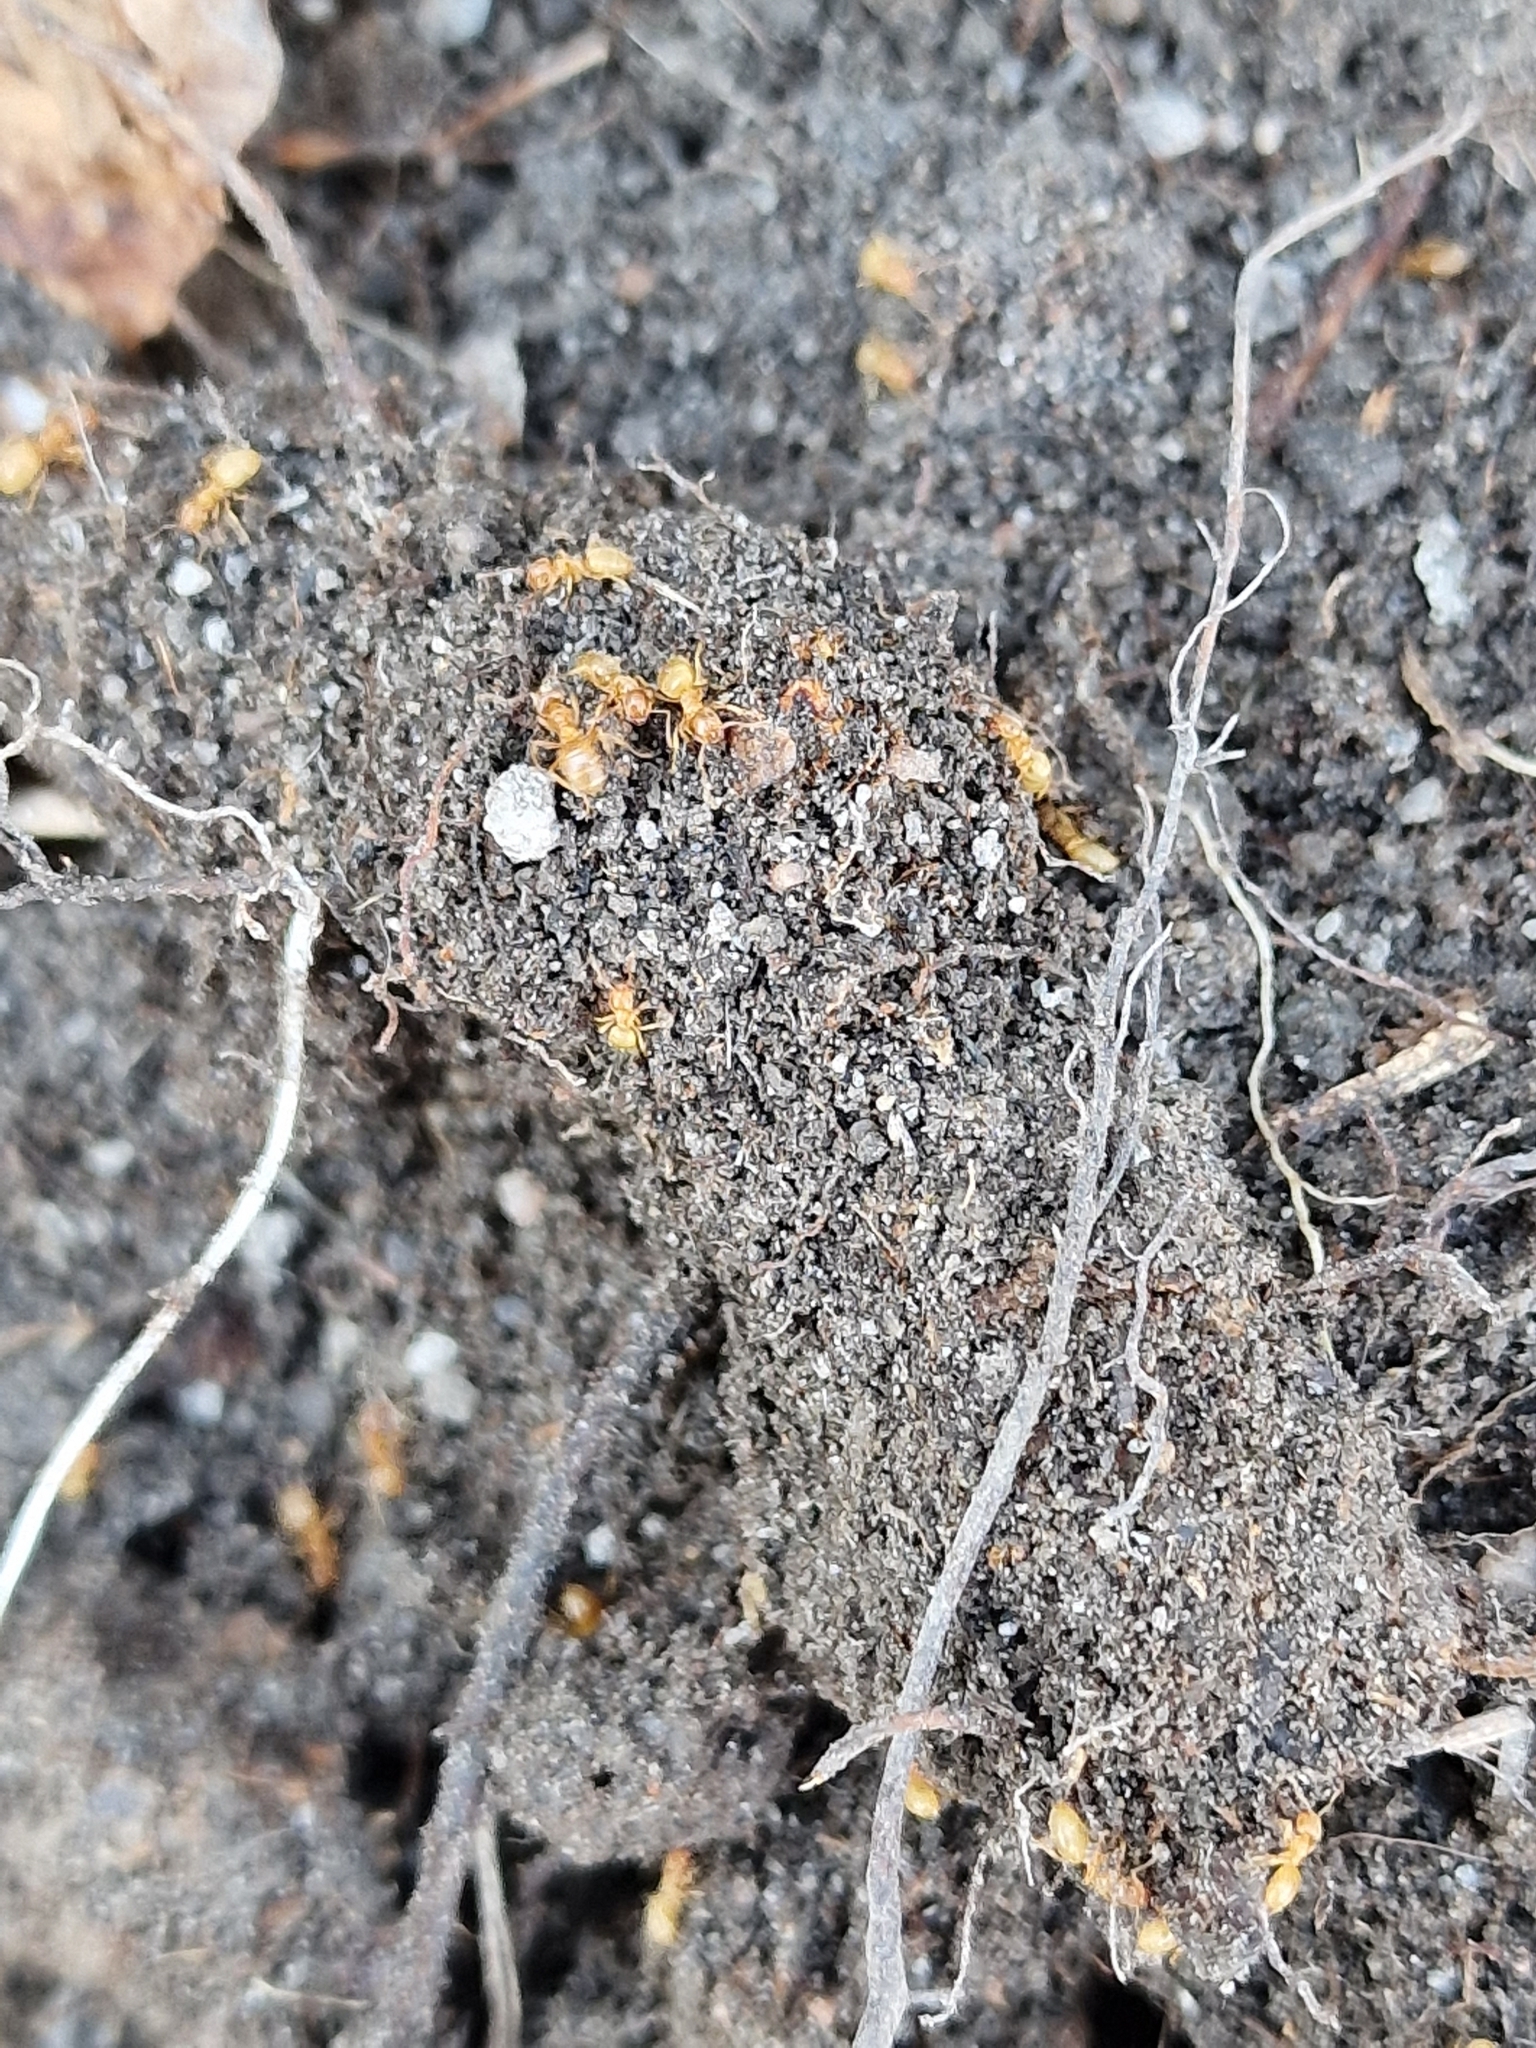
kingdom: Animalia
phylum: Arthropoda
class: Insecta
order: Hymenoptera
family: Formicidae
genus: Lasius
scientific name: Lasius flavus
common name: Blond field ant
